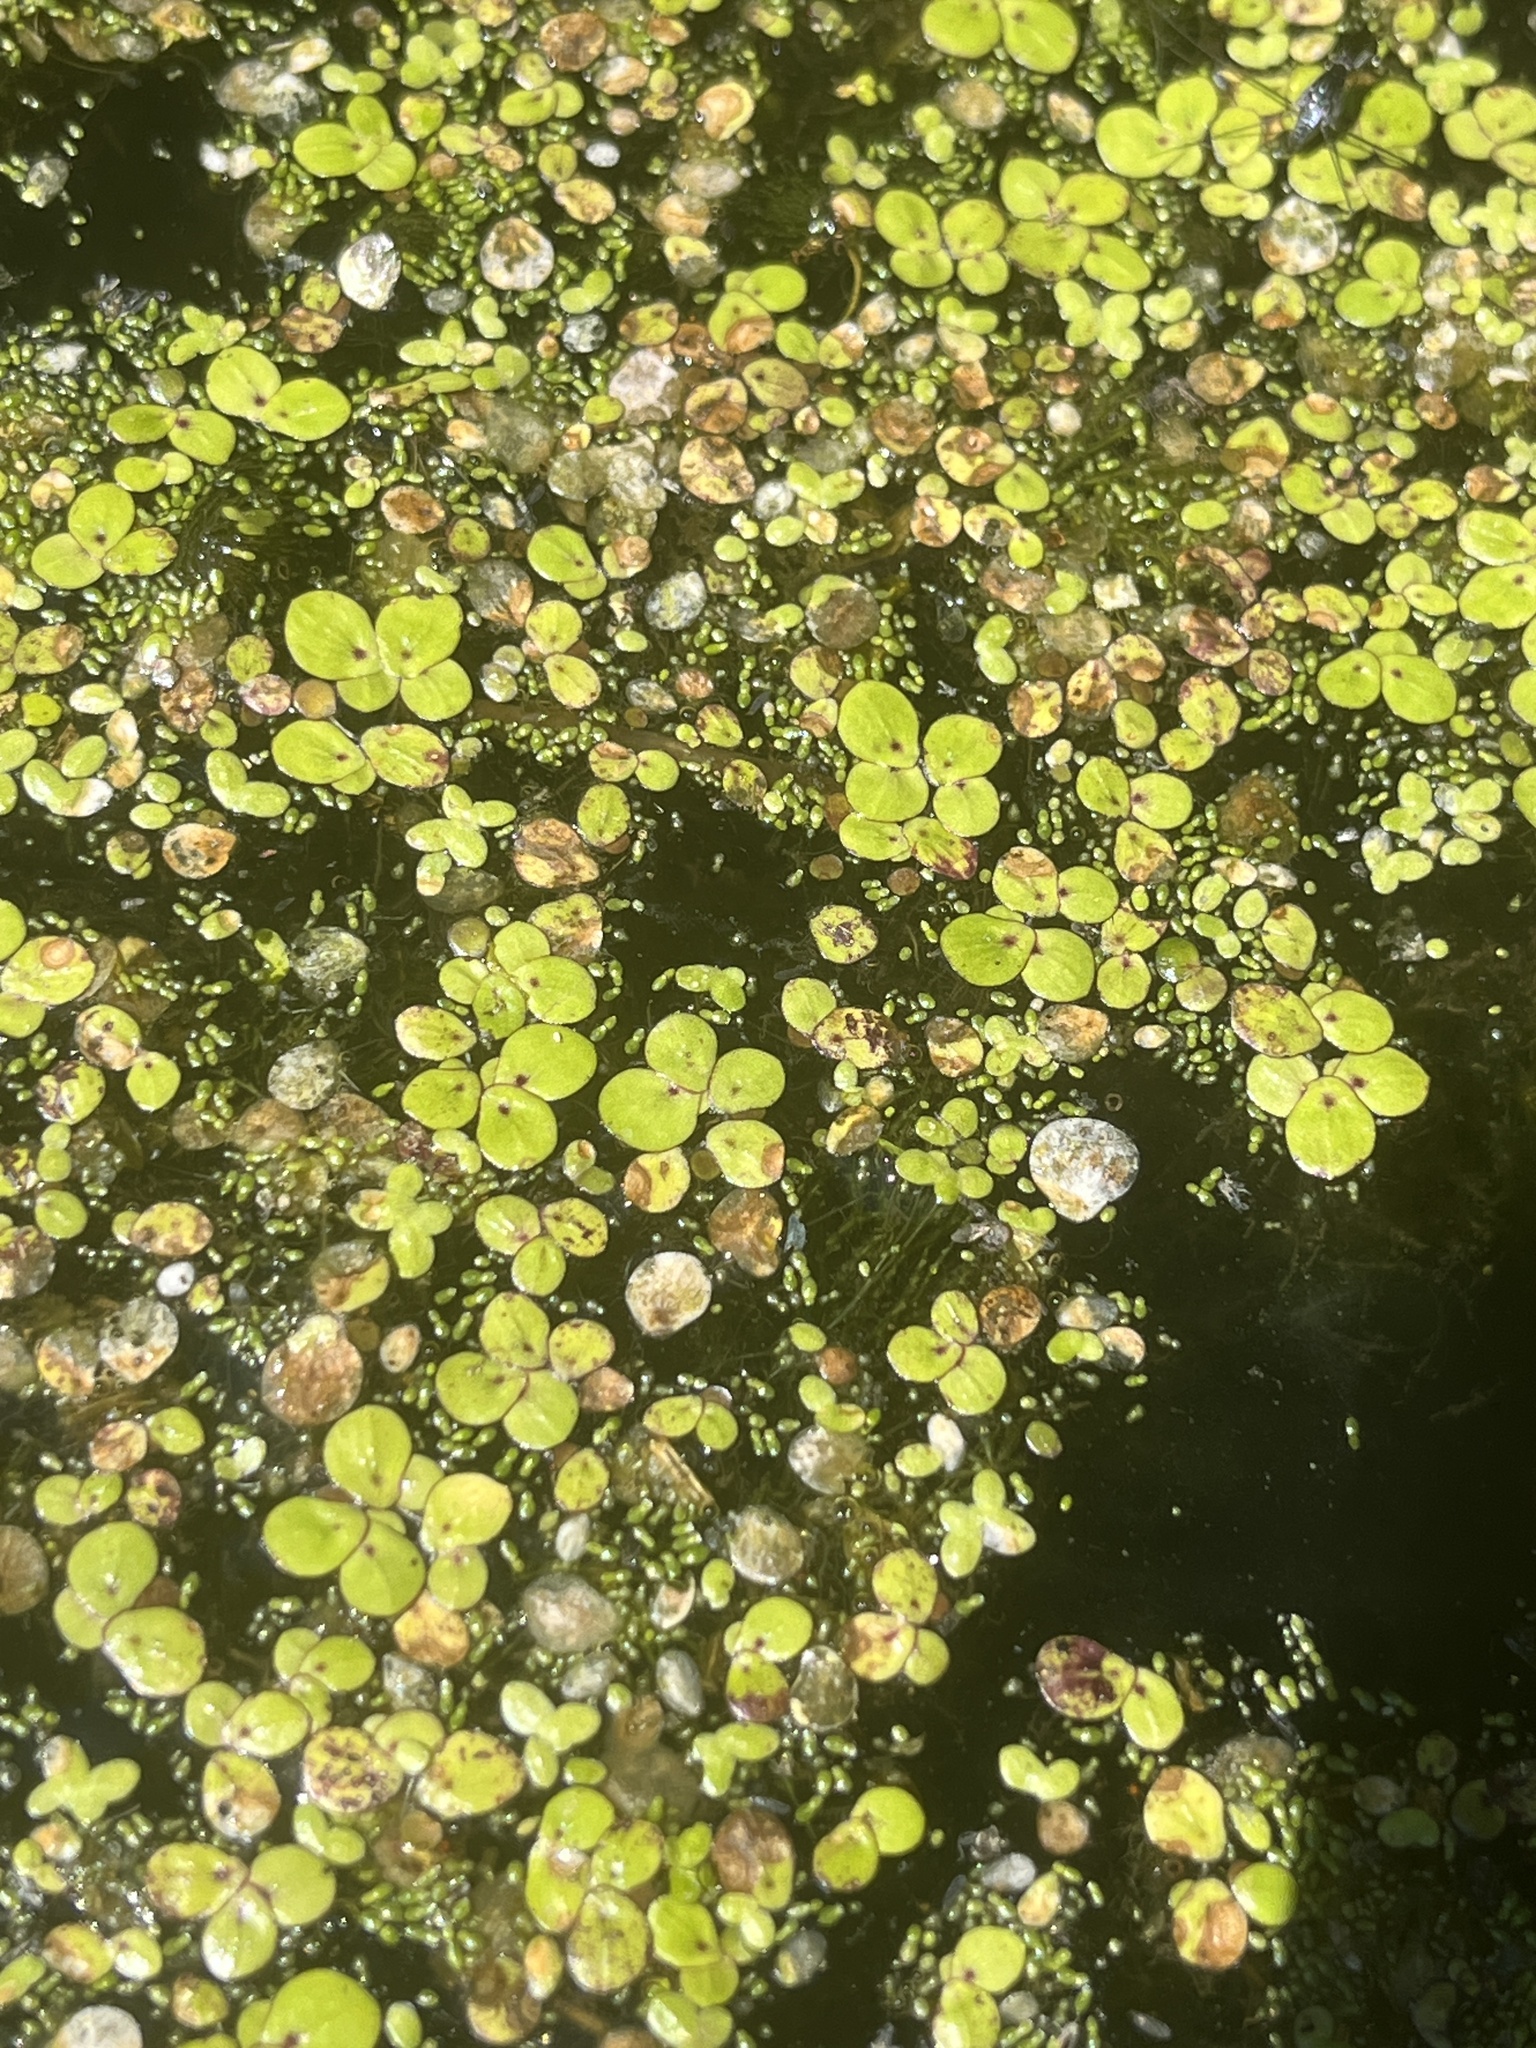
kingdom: Plantae
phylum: Tracheophyta
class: Liliopsida
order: Alismatales
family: Araceae
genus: Spirodela
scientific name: Spirodela polyrhiza
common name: Great duckweed
